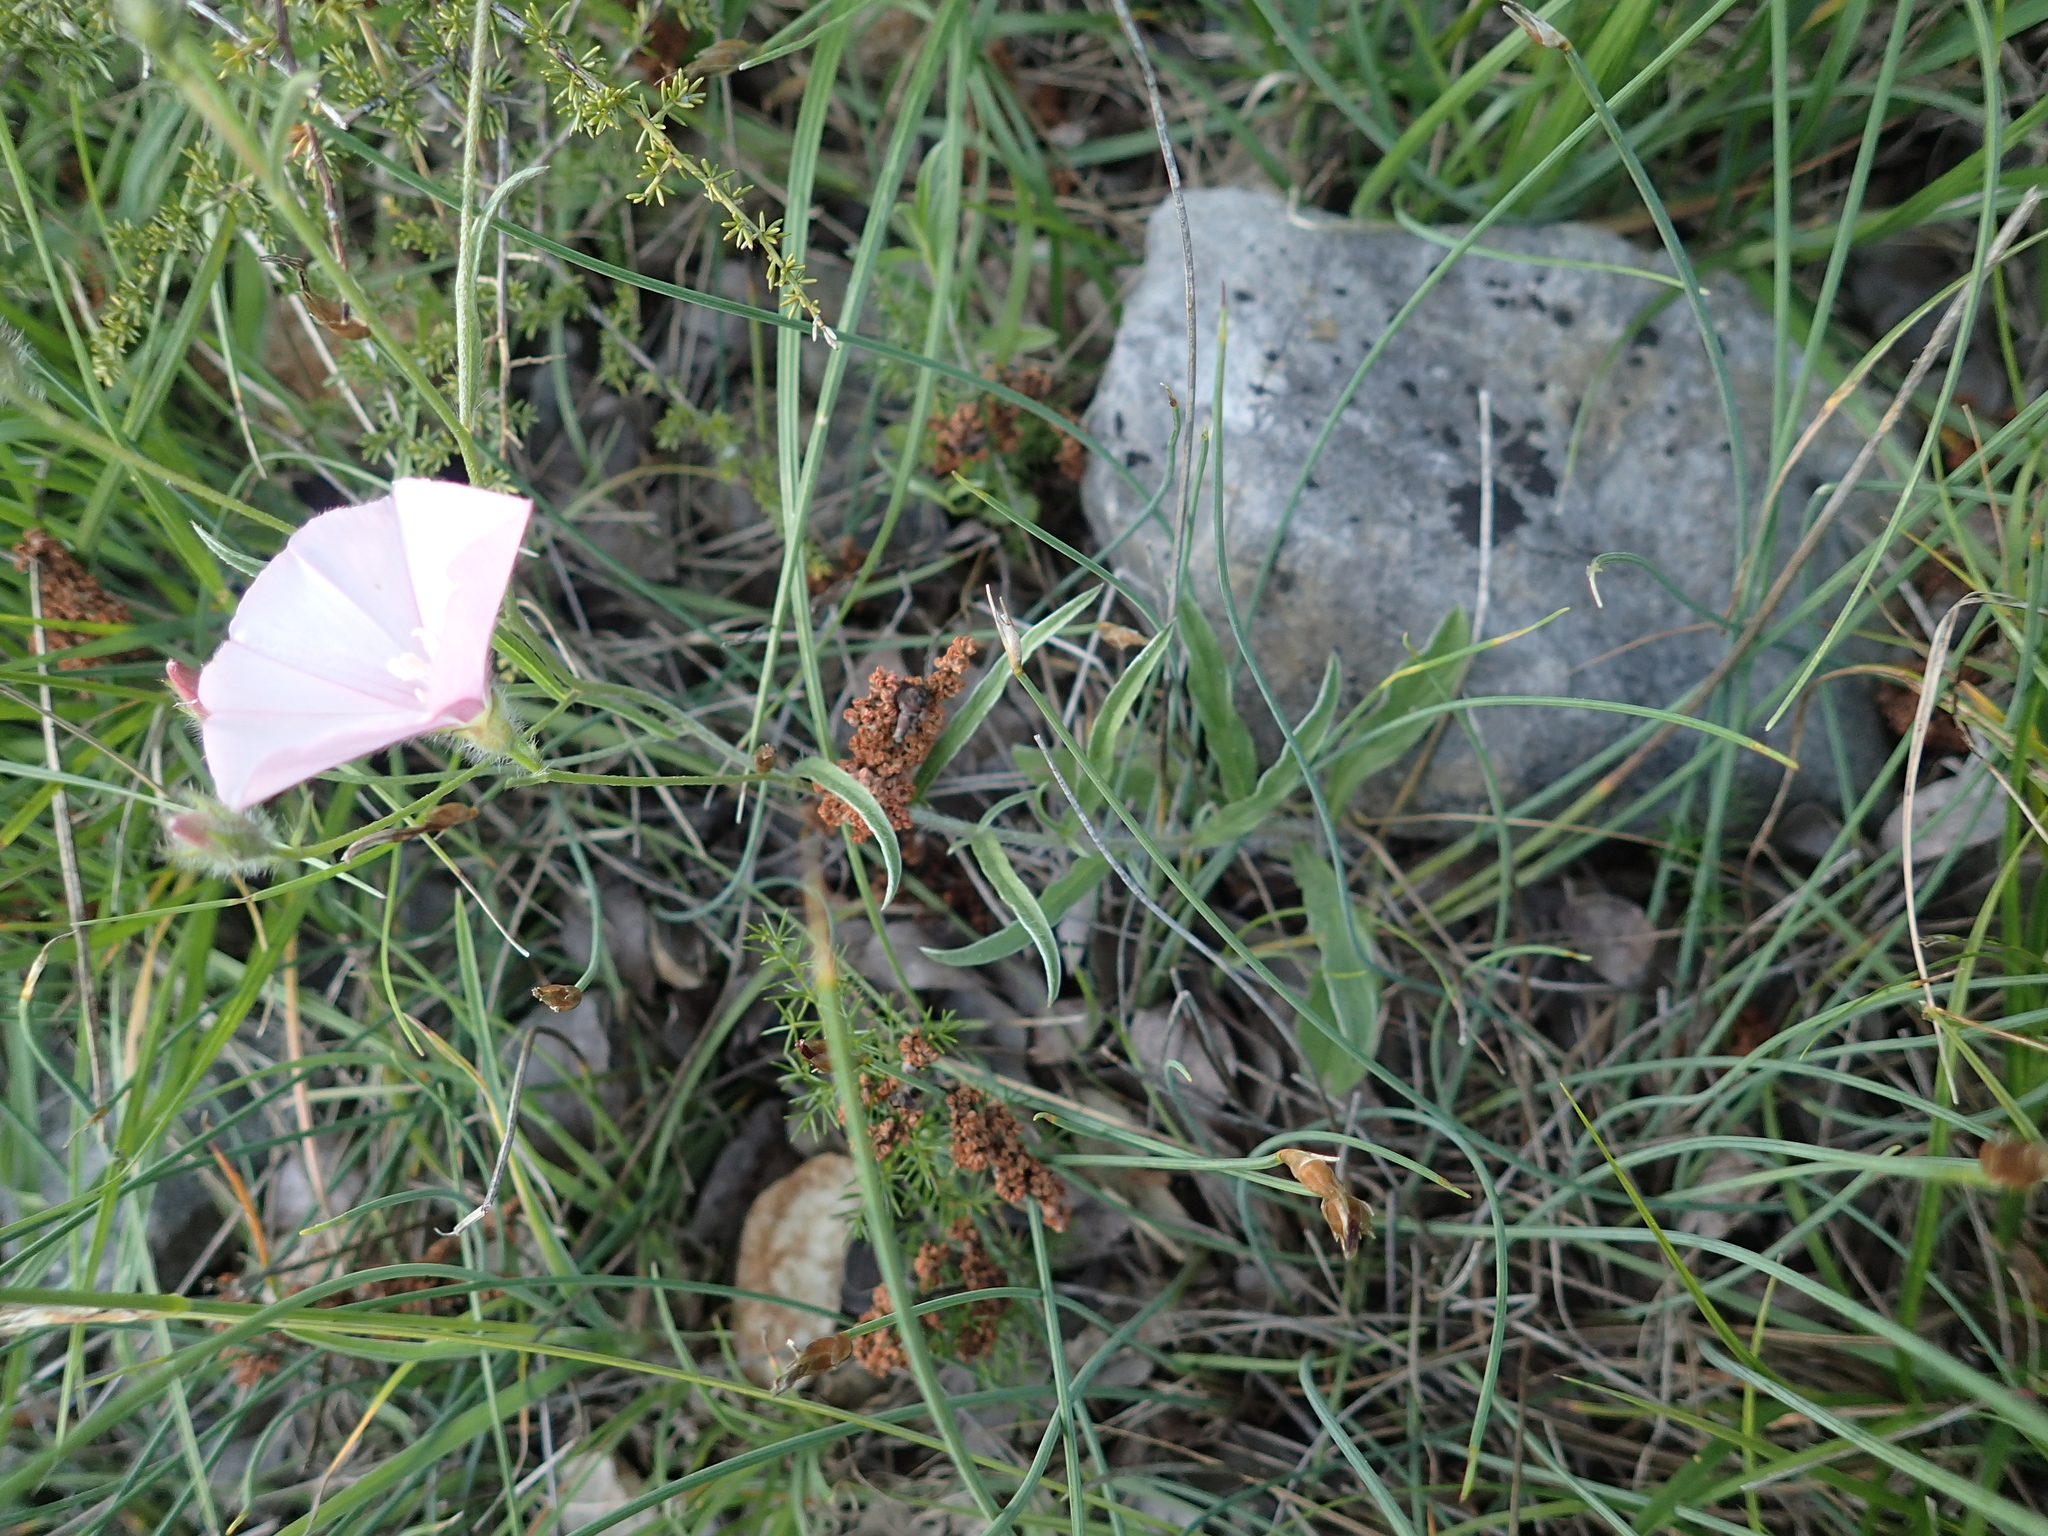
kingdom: Plantae
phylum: Tracheophyta
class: Magnoliopsida
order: Solanales
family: Convolvulaceae
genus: Convolvulus
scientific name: Convolvulus cantabrica
